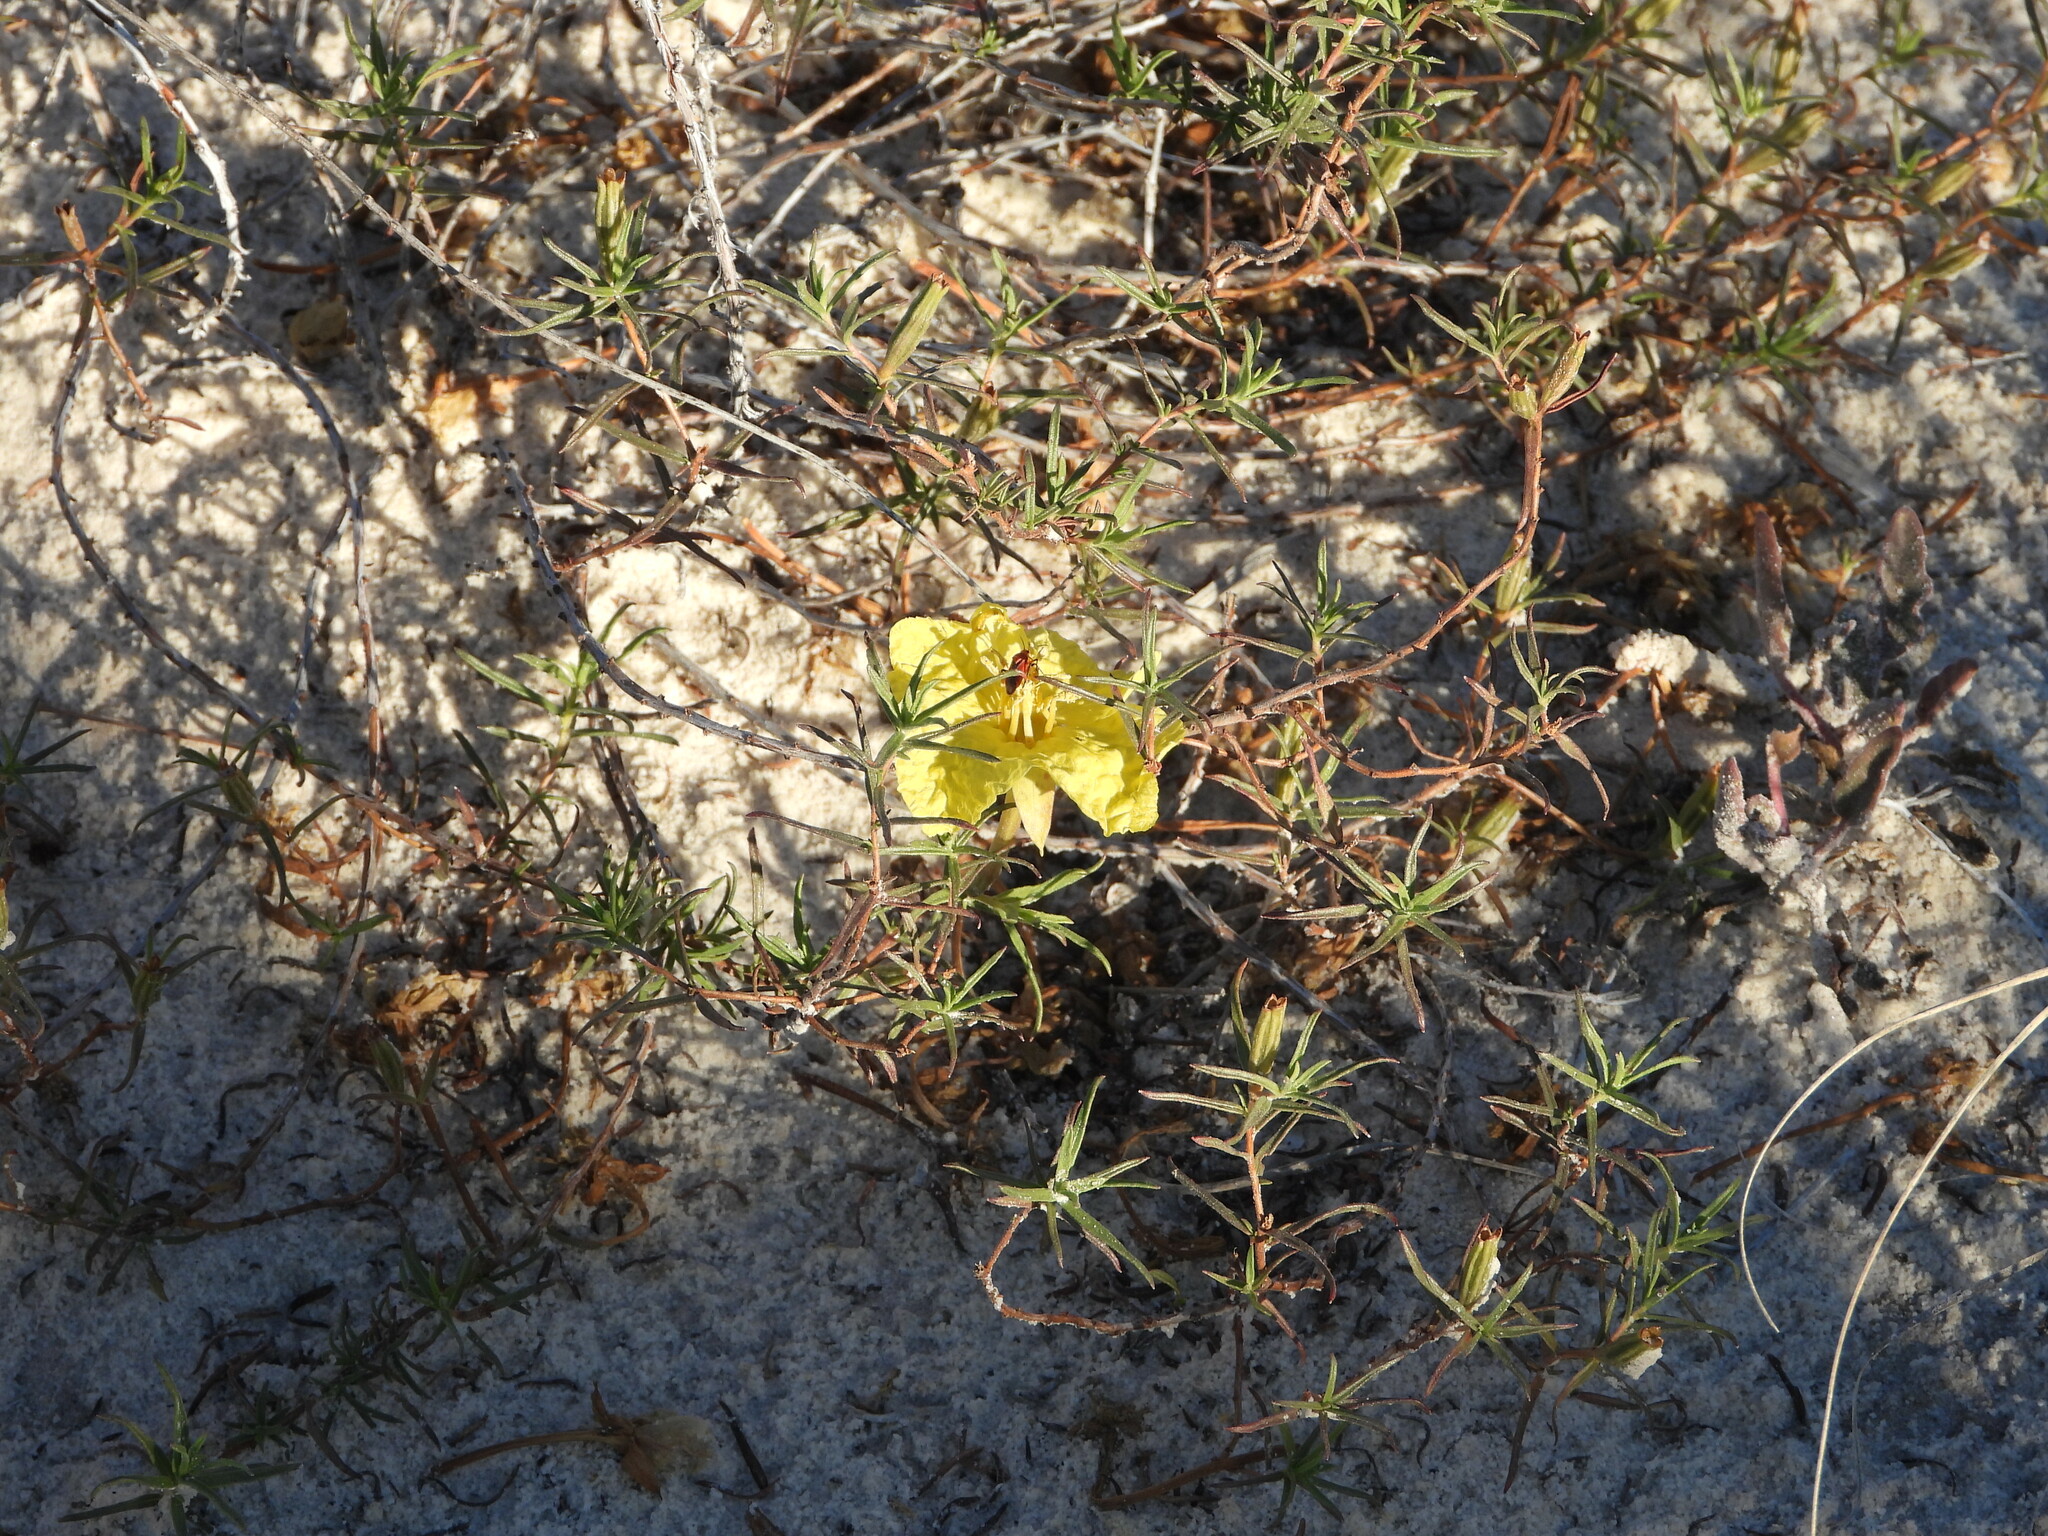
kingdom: Plantae
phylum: Tracheophyta
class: Magnoliopsida
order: Myrtales
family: Onagraceae
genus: Oenothera
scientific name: Oenothera hartwegii
